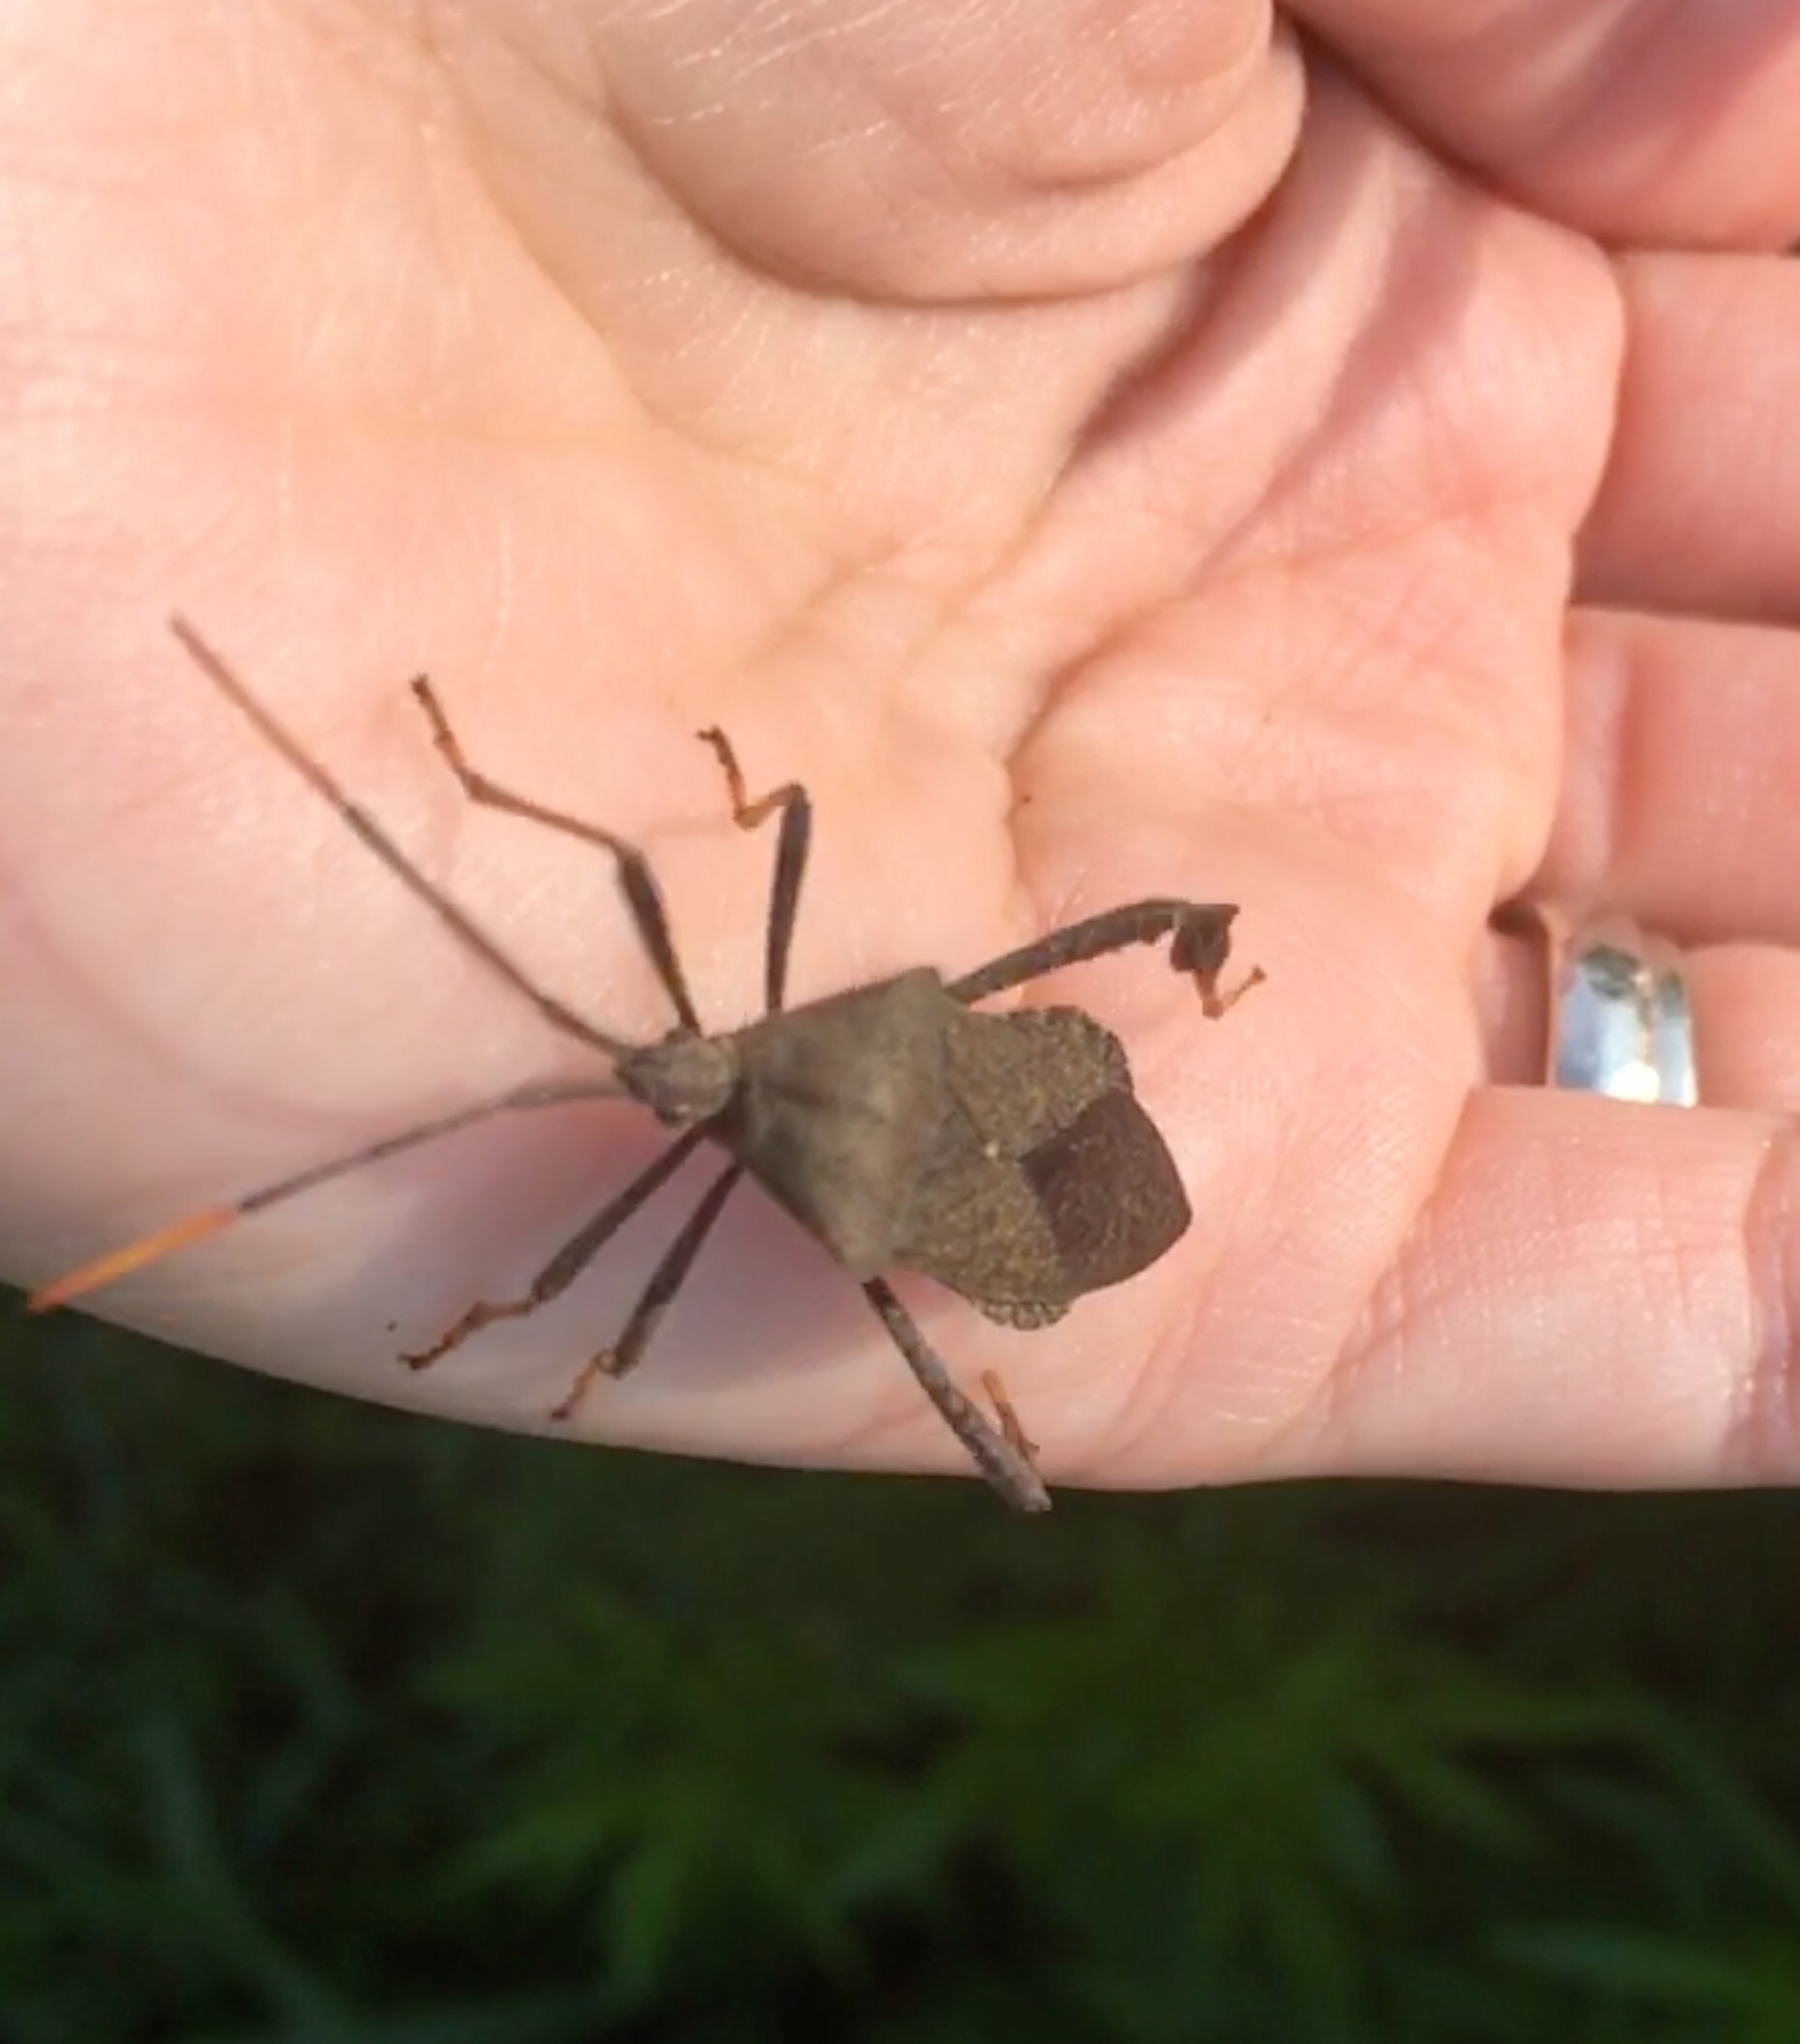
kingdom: Animalia
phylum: Arthropoda
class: Insecta
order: Hemiptera
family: Coreidae
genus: Acanthocephala
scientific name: Acanthocephala terminalis
